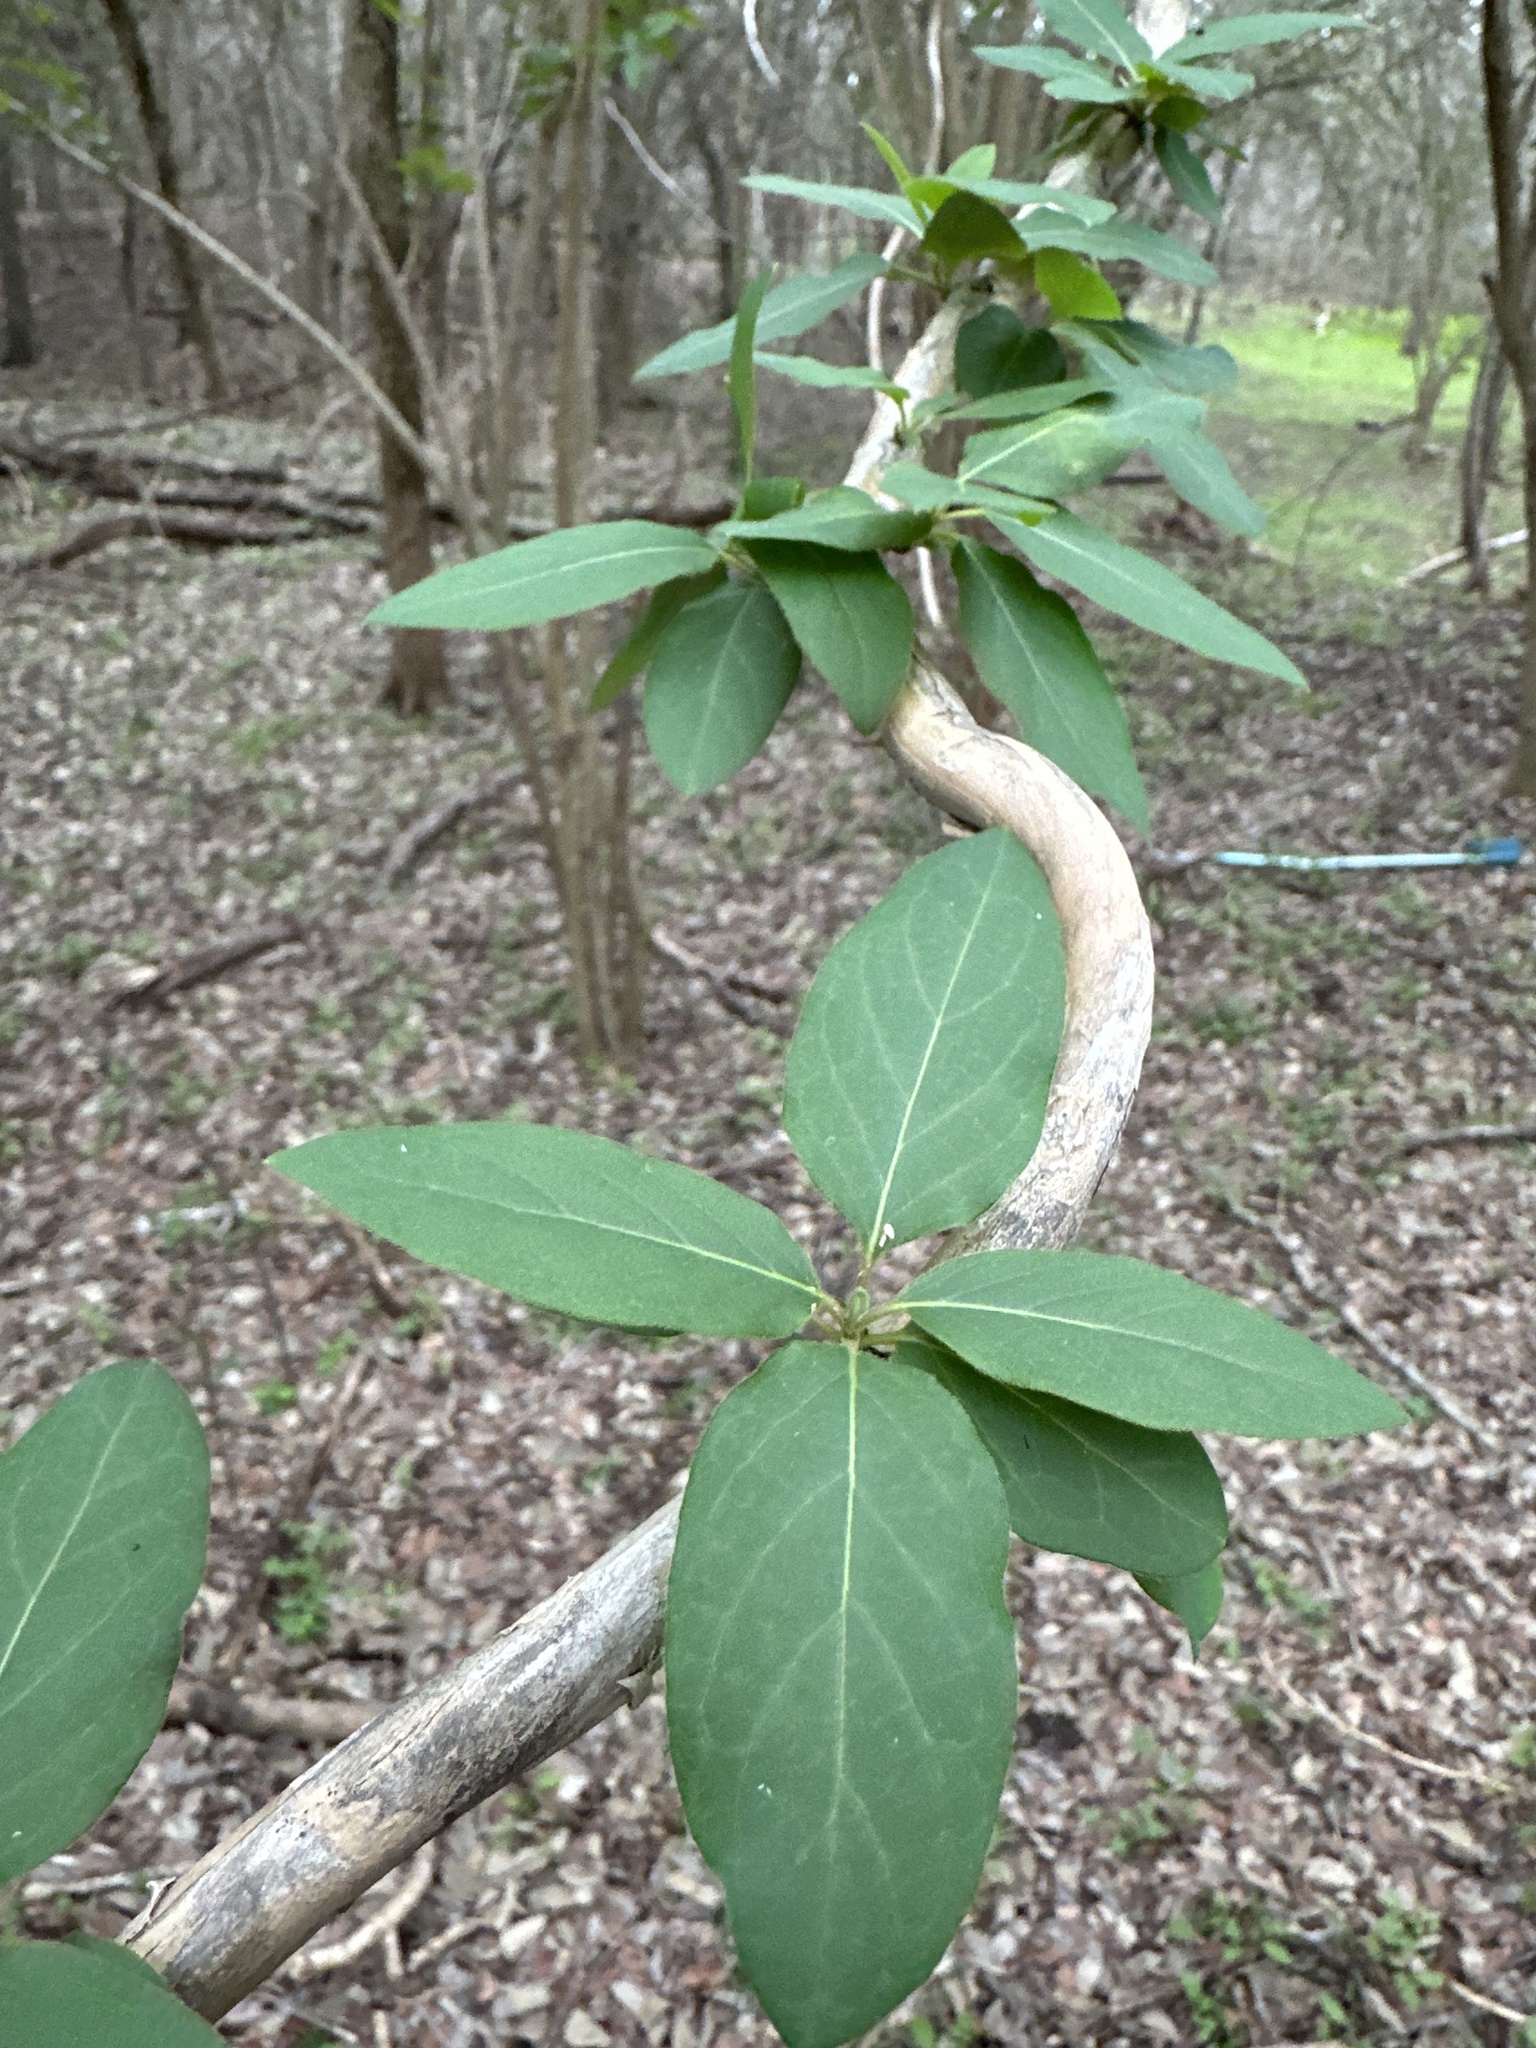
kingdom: Plantae
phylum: Tracheophyta
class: Magnoliopsida
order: Dipsacales
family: Caprifoliaceae
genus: Lonicera
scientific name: Lonicera japonica
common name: Japanese honeysuckle
